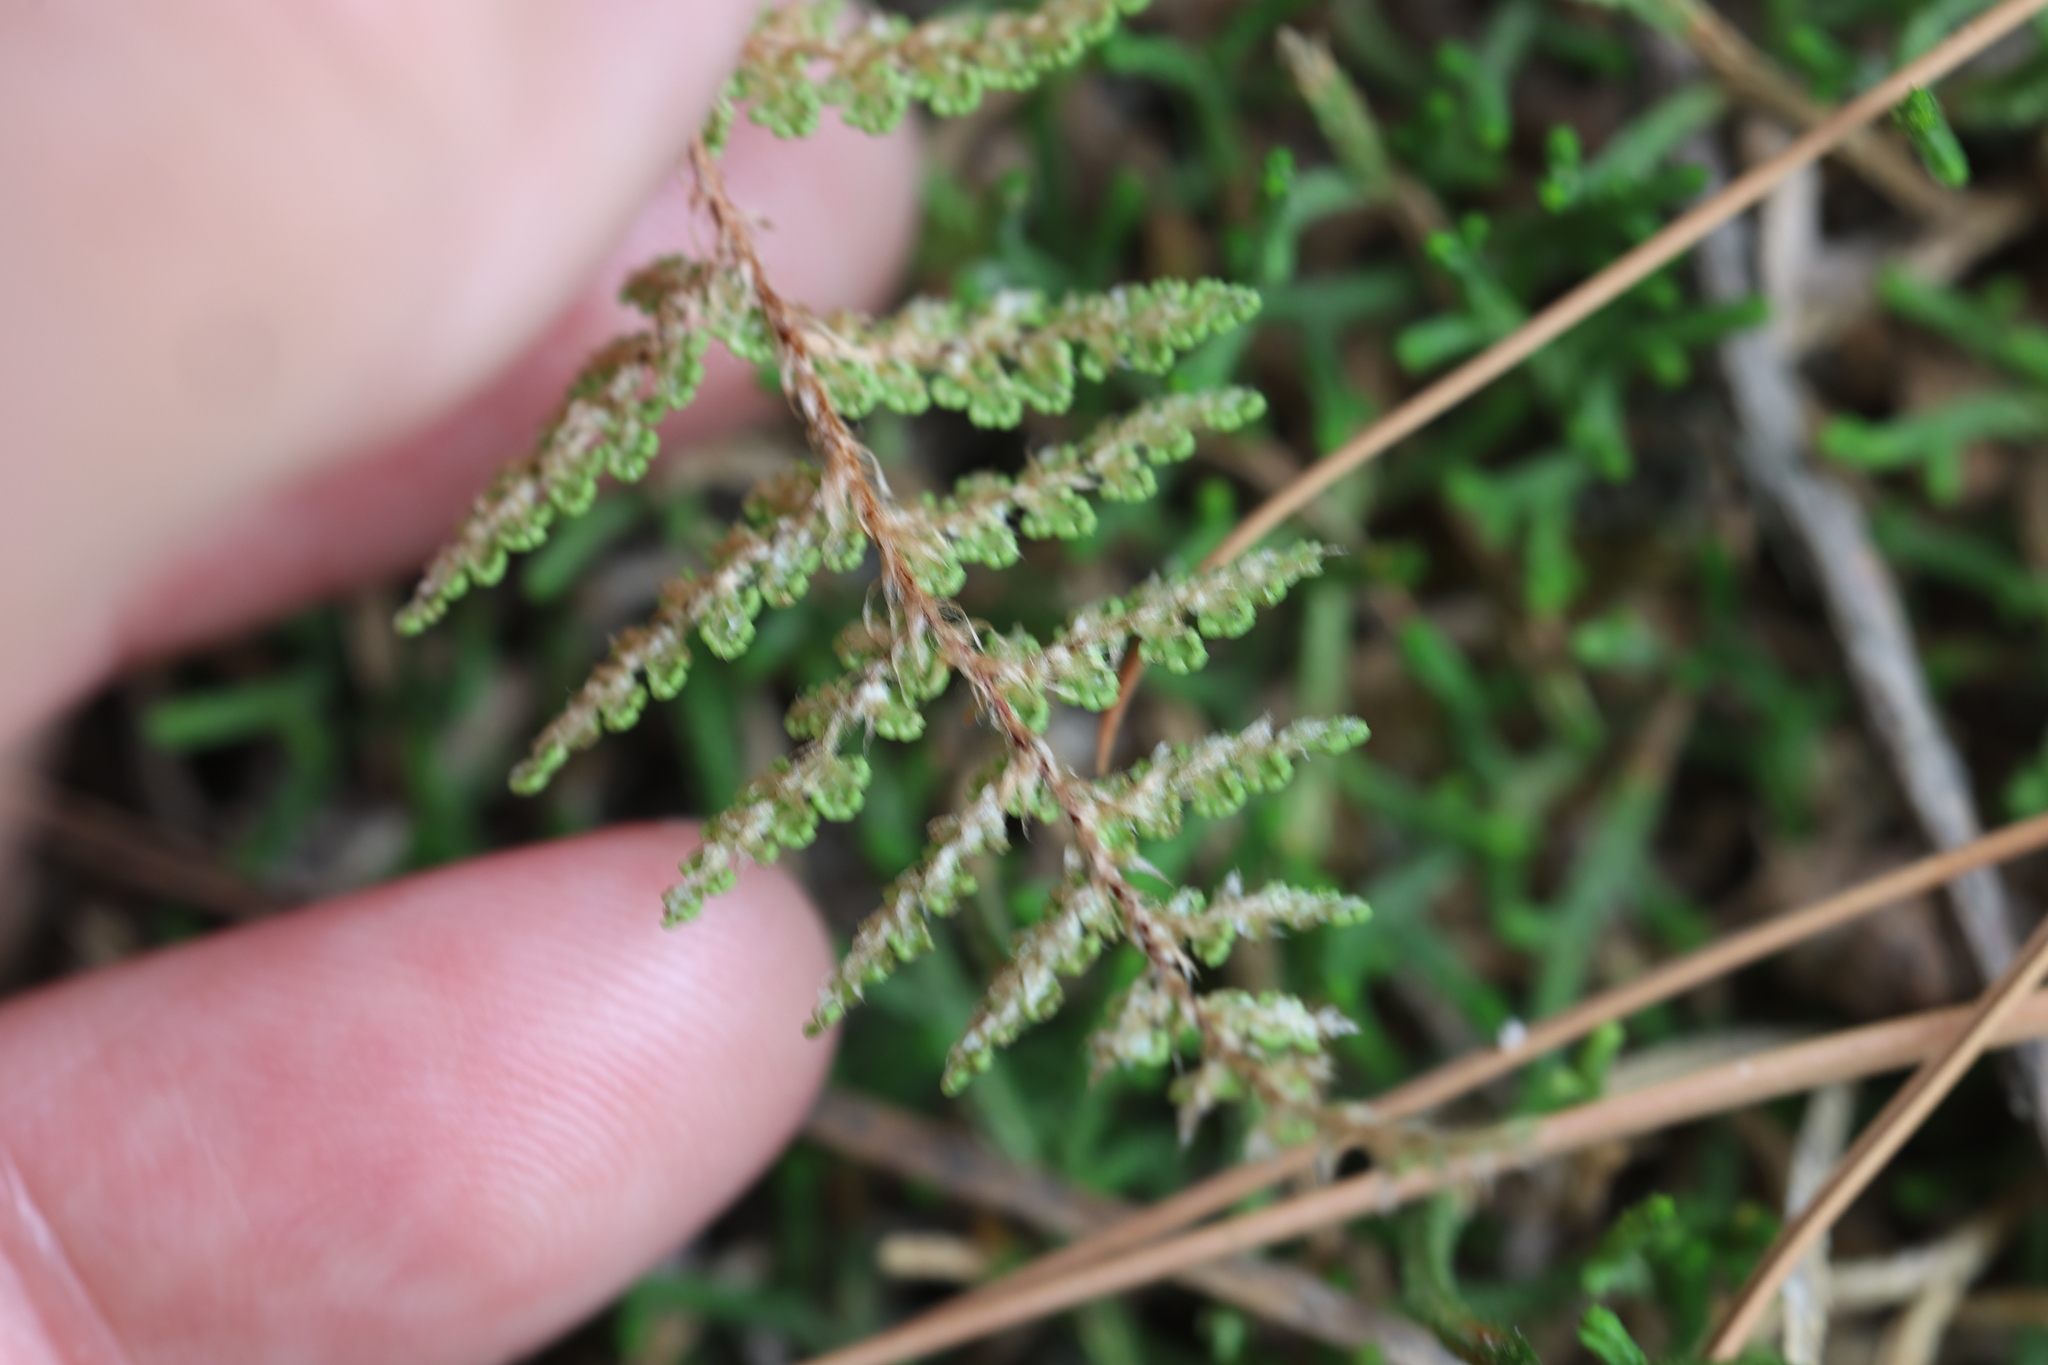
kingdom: Plantae
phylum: Tracheophyta
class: Polypodiopsida
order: Polypodiales
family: Pteridaceae
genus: Myriopteris
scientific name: Myriopteris fendleri
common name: Fendler's lip fern
